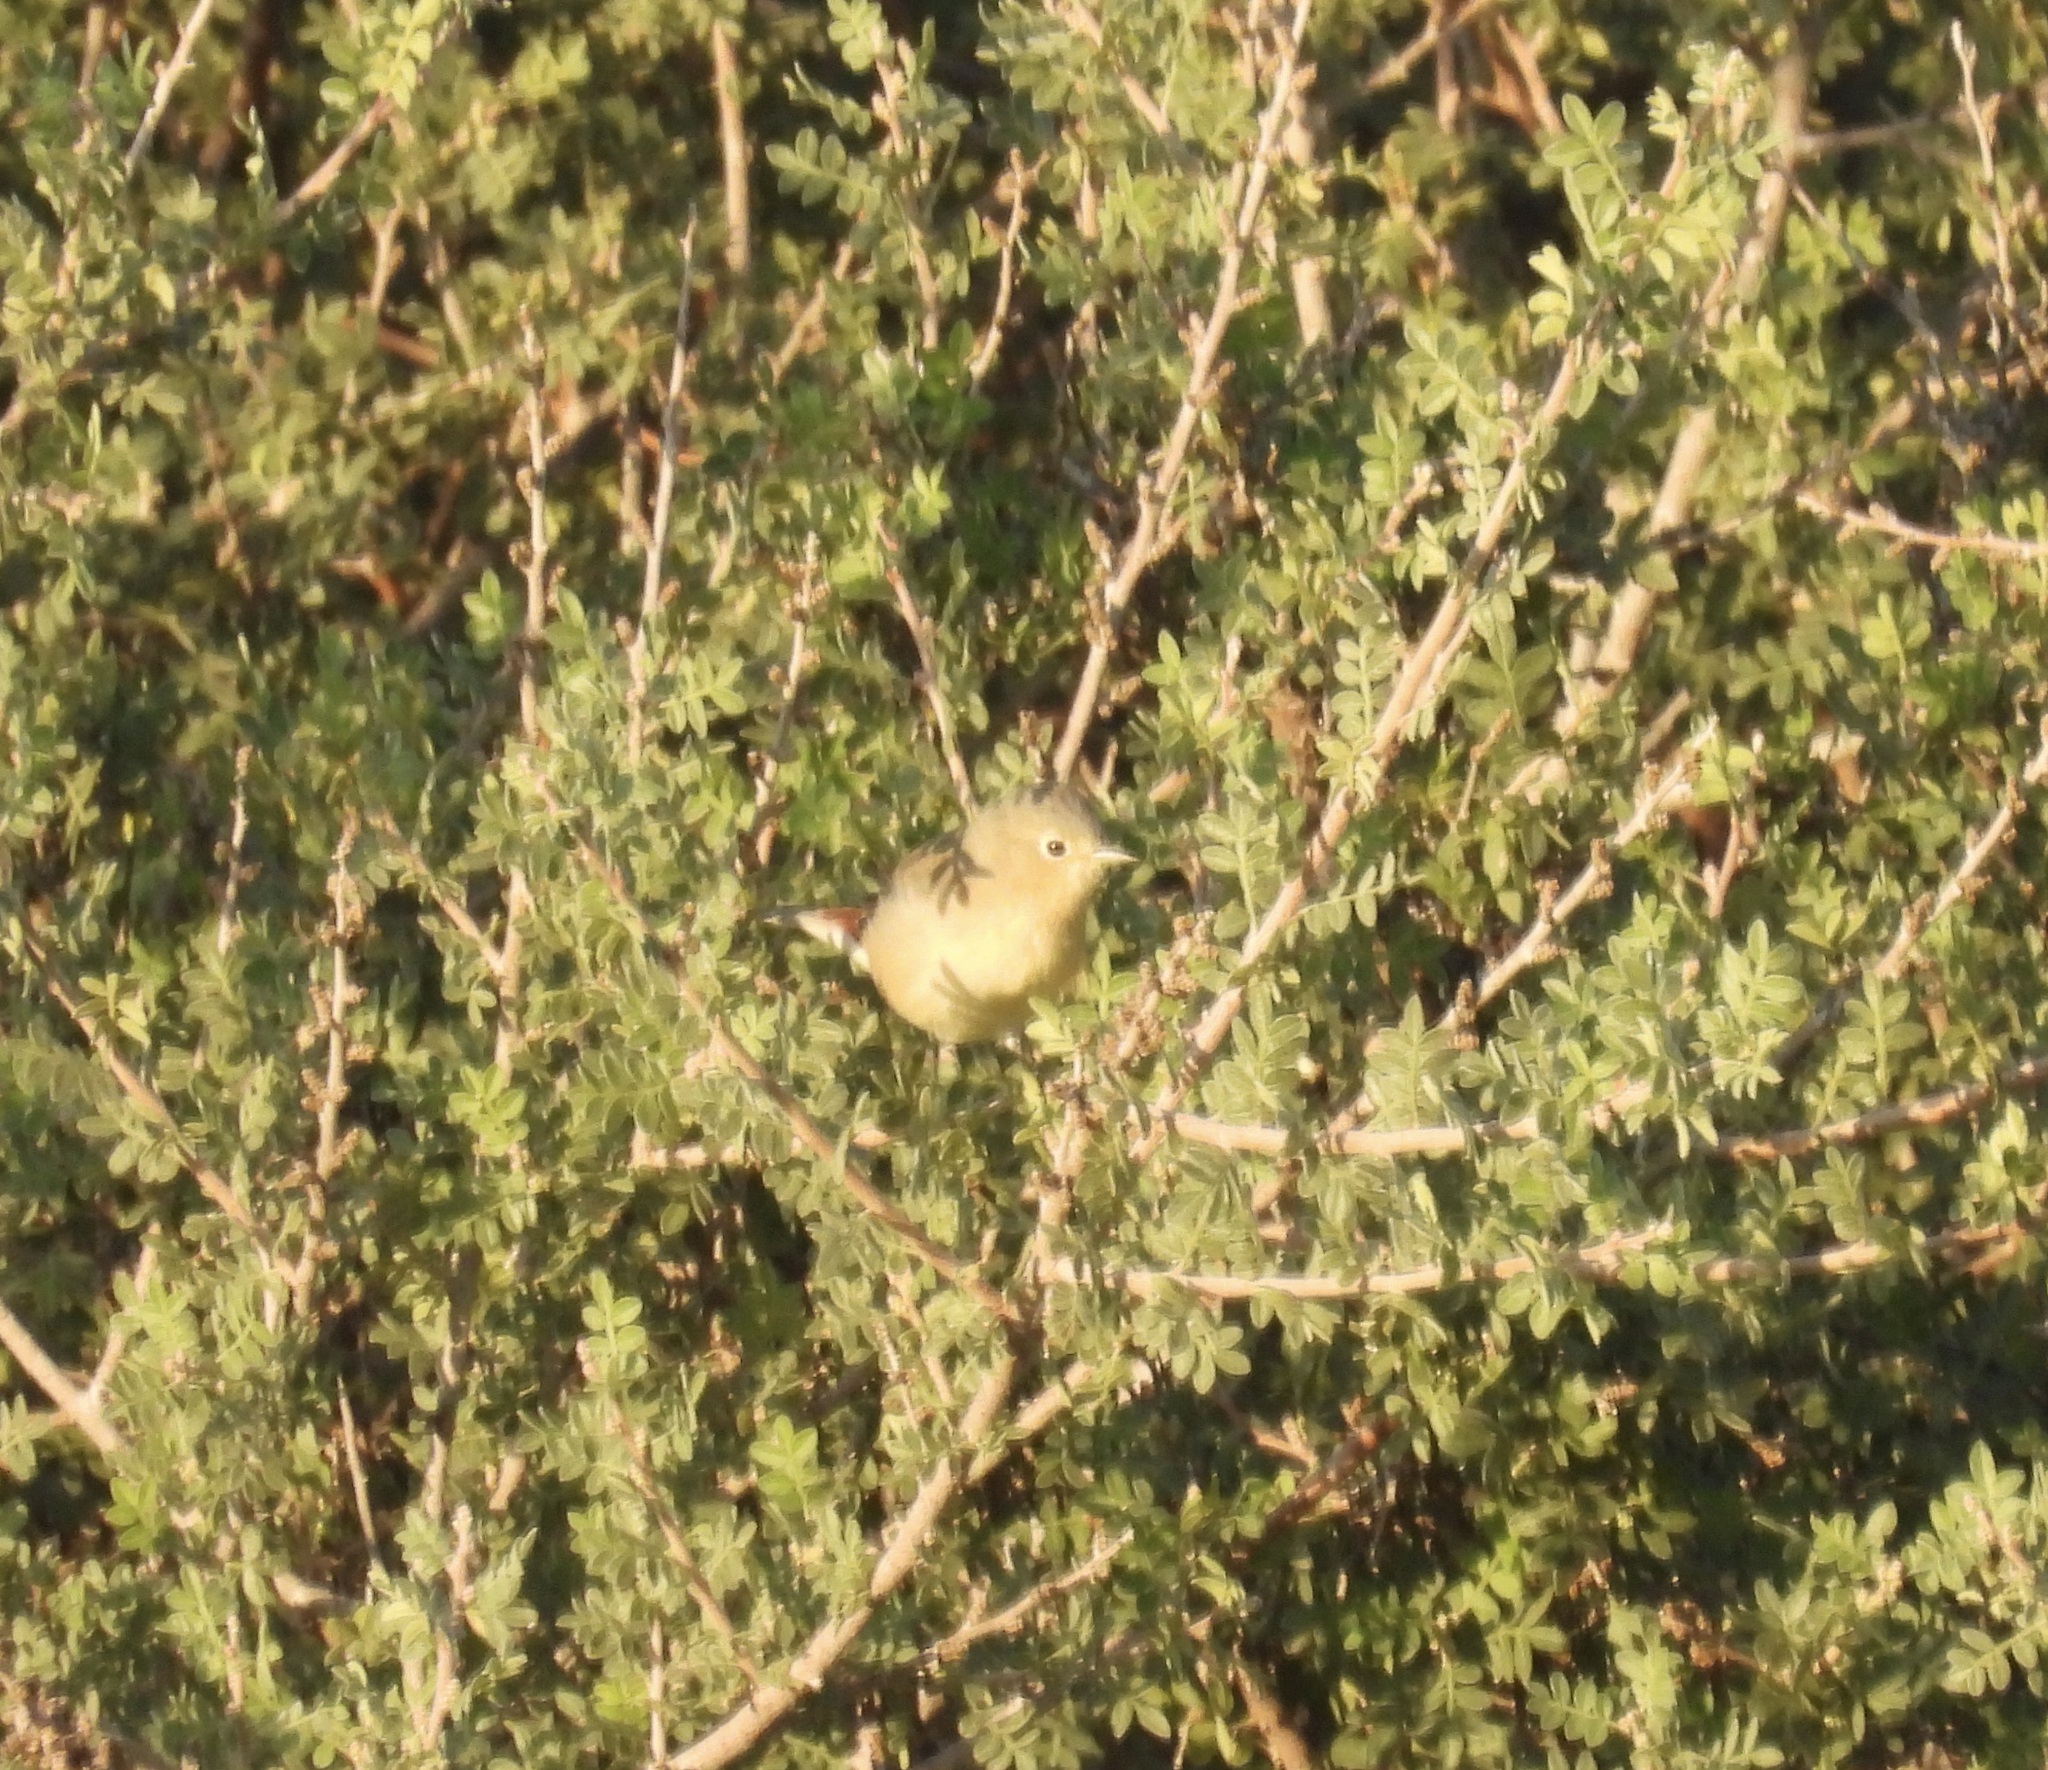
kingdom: Animalia
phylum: Chordata
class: Aves
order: Passeriformes
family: Parulidae
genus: Leiothlypis
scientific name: Leiothlypis luciae
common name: Lucy's warbler
